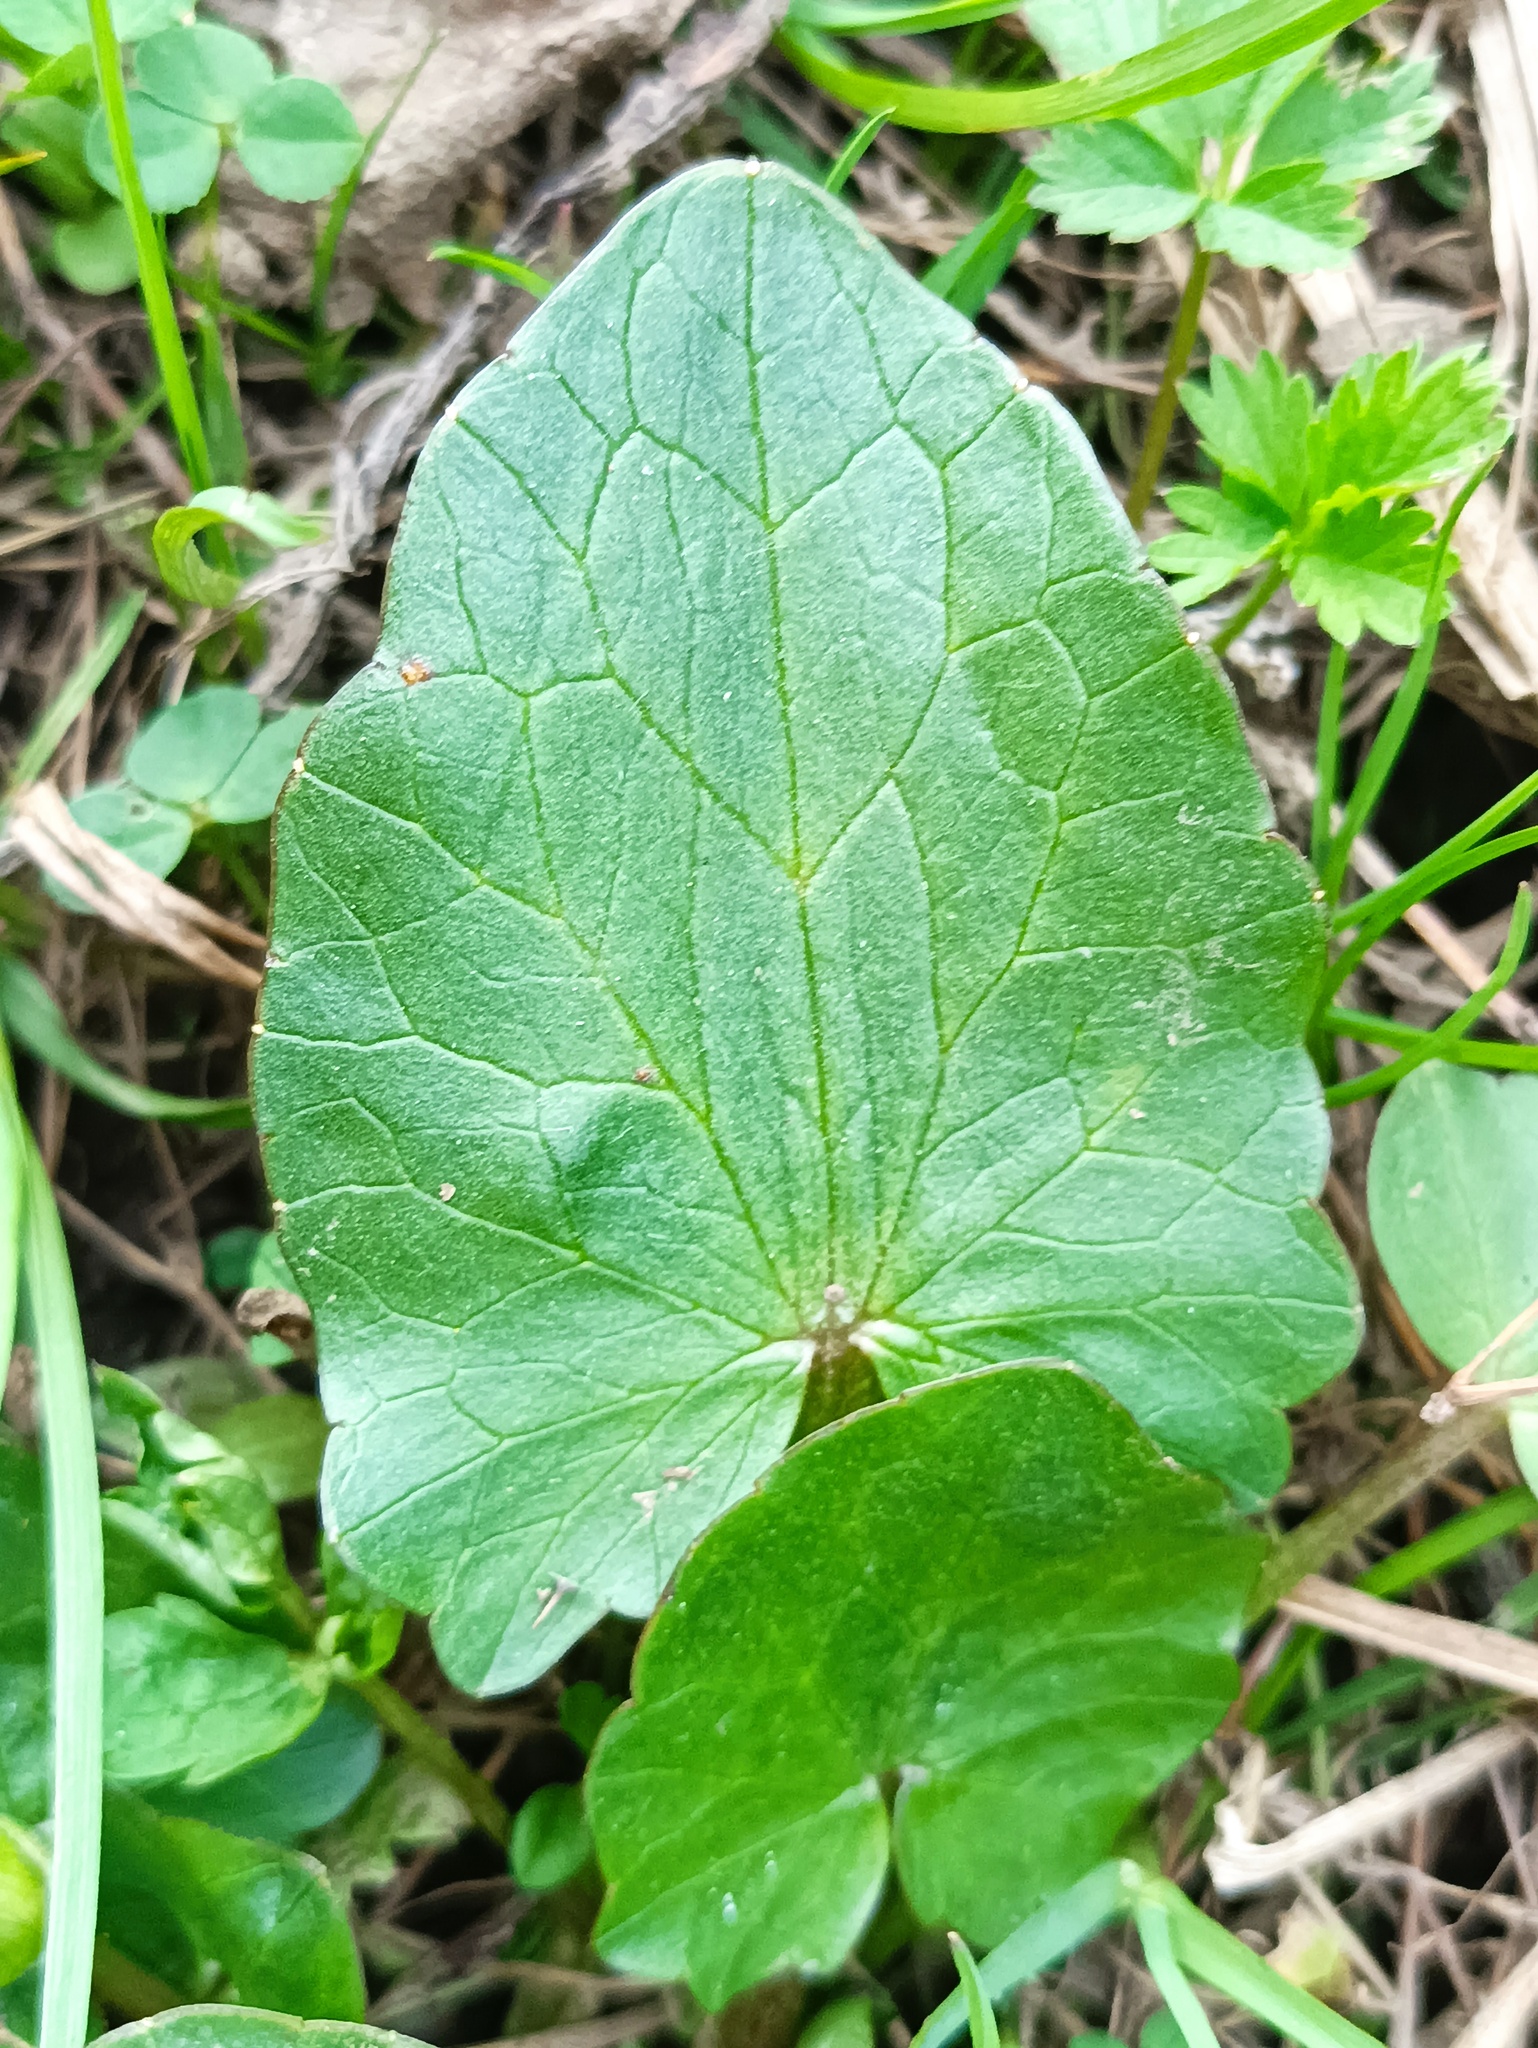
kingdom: Plantae
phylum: Tracheophyta
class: Magnoliopsida
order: Ranunculales
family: Ranunculaceae
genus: Ficaria
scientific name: Ficaria verna
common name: Lesser celandine
